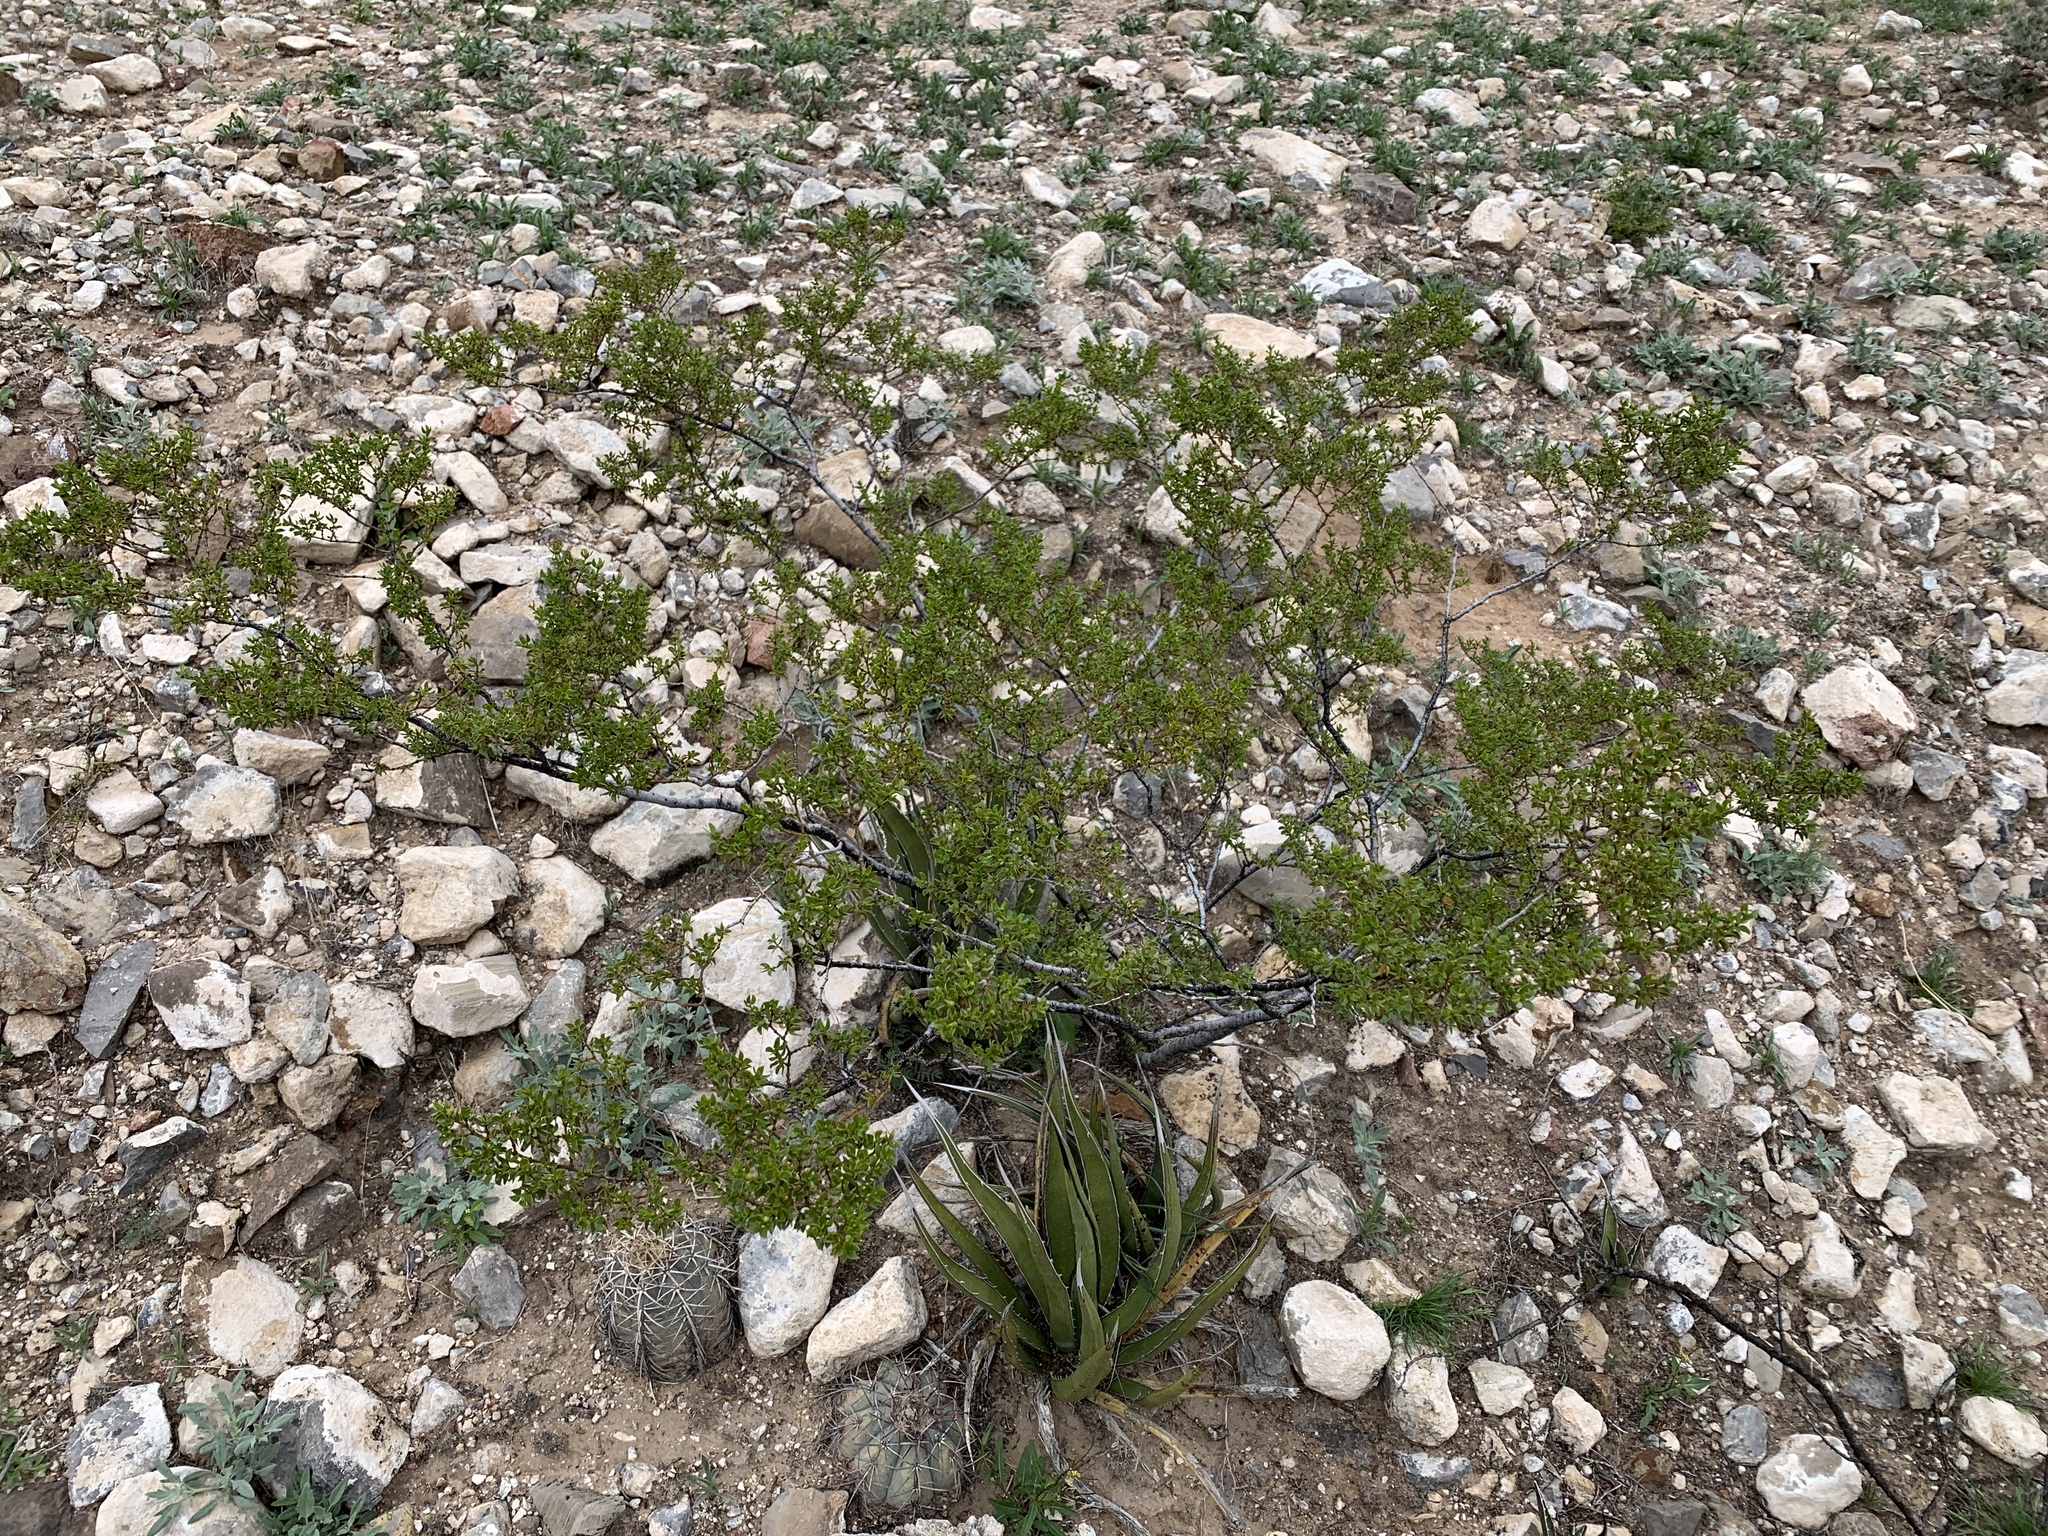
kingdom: Plantae
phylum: Tracheophyta
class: Magnoliopsida
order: Zygophyllales
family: Zygophyllaceae
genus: Larrea
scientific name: Larrea tridentata
